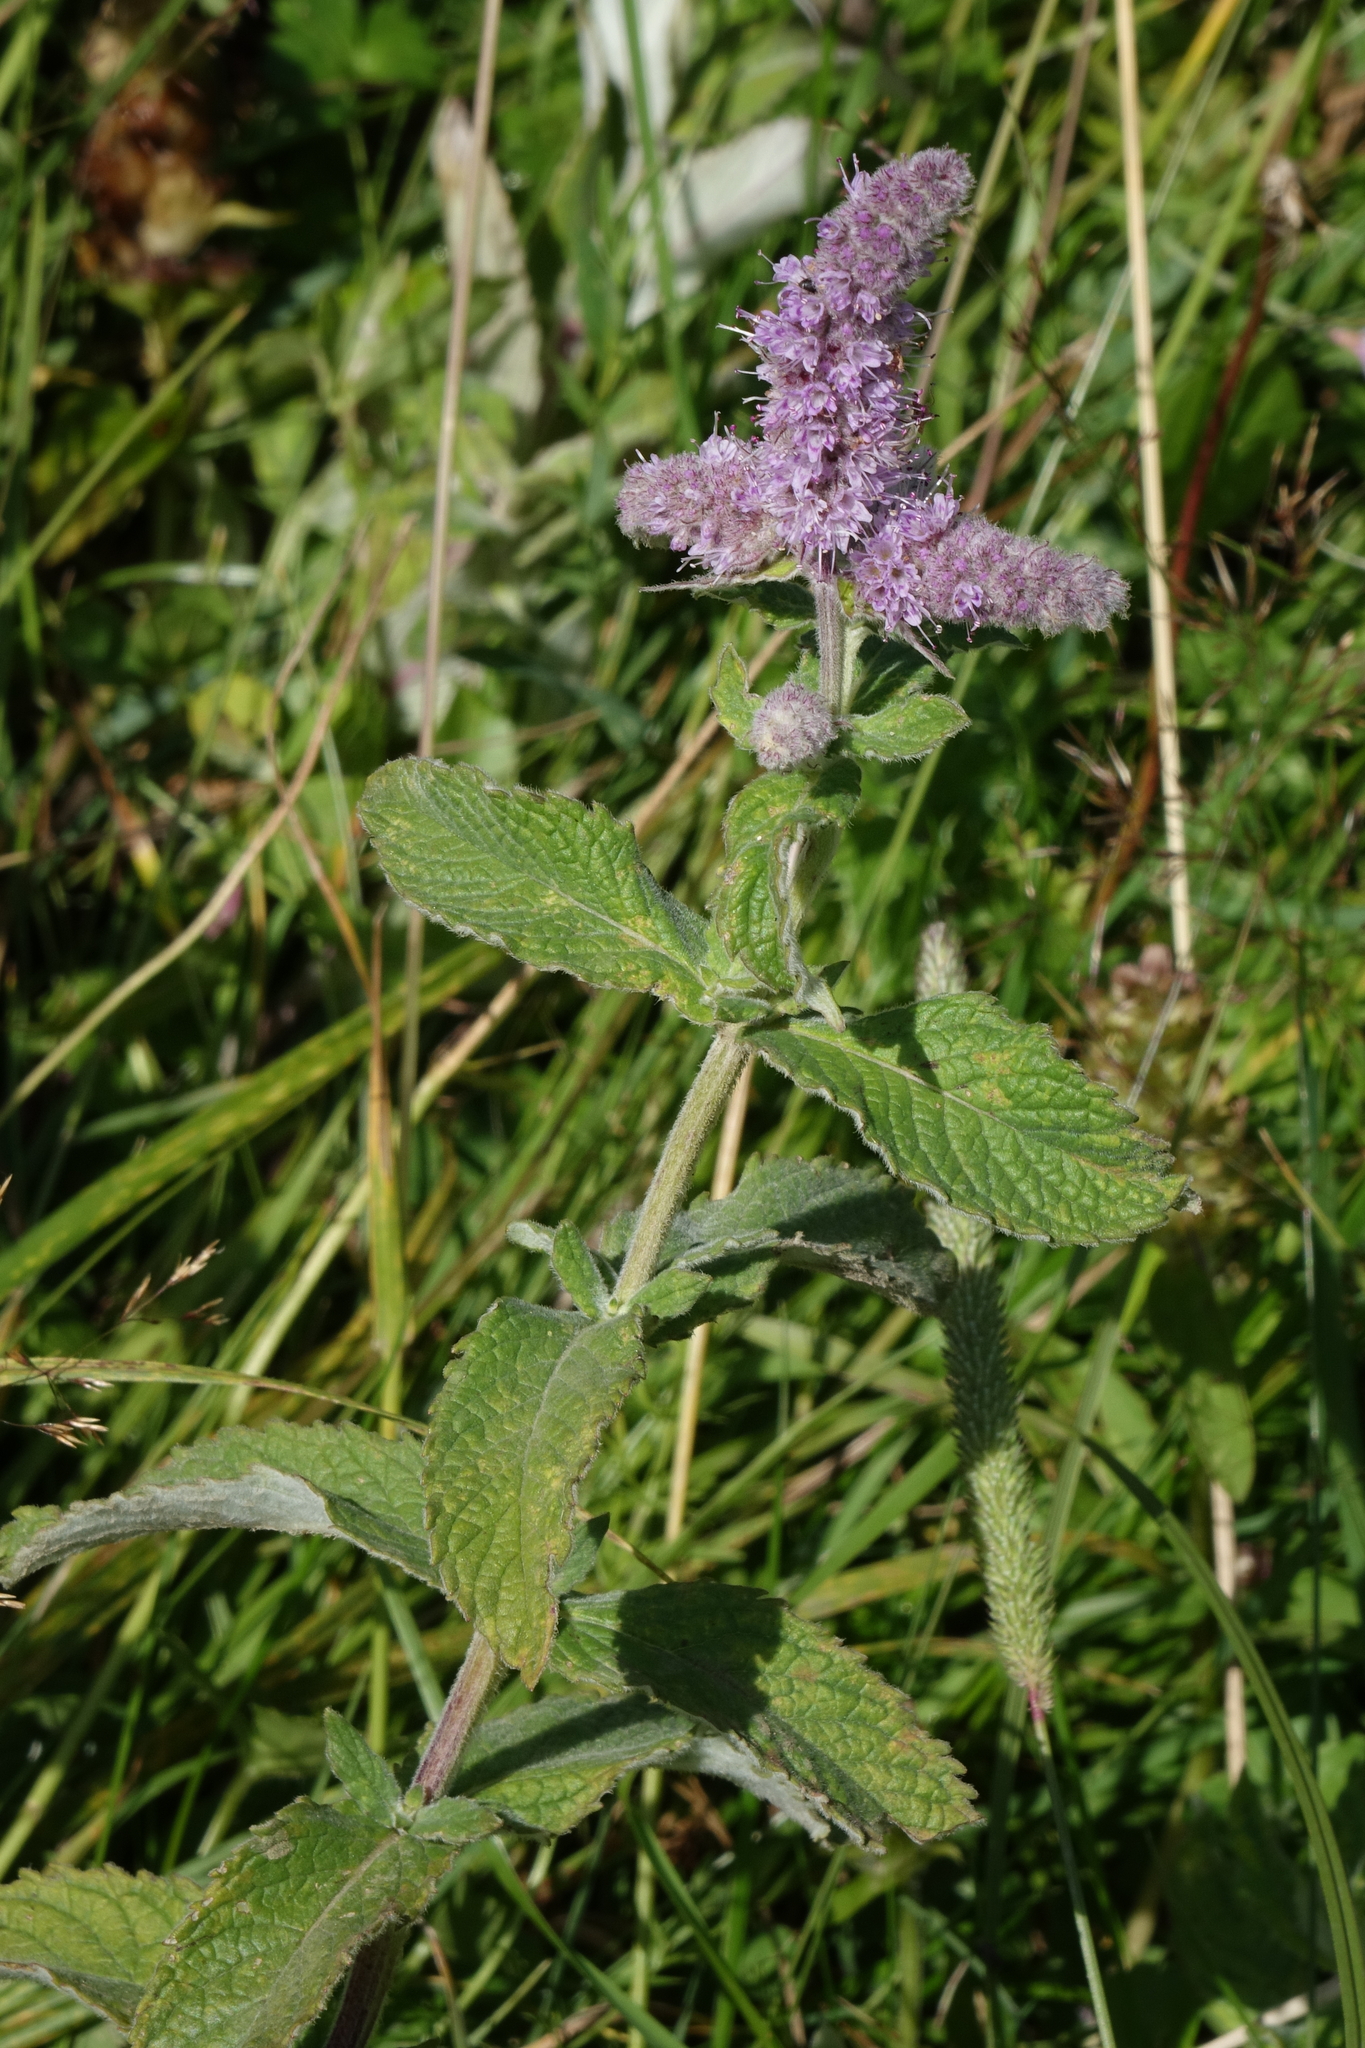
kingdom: Plantae
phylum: Tracheophyta
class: Magnoliopsida
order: Lamiales
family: Lamiaceae
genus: Mentha
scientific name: Mentha longifolia
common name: Horse mint
